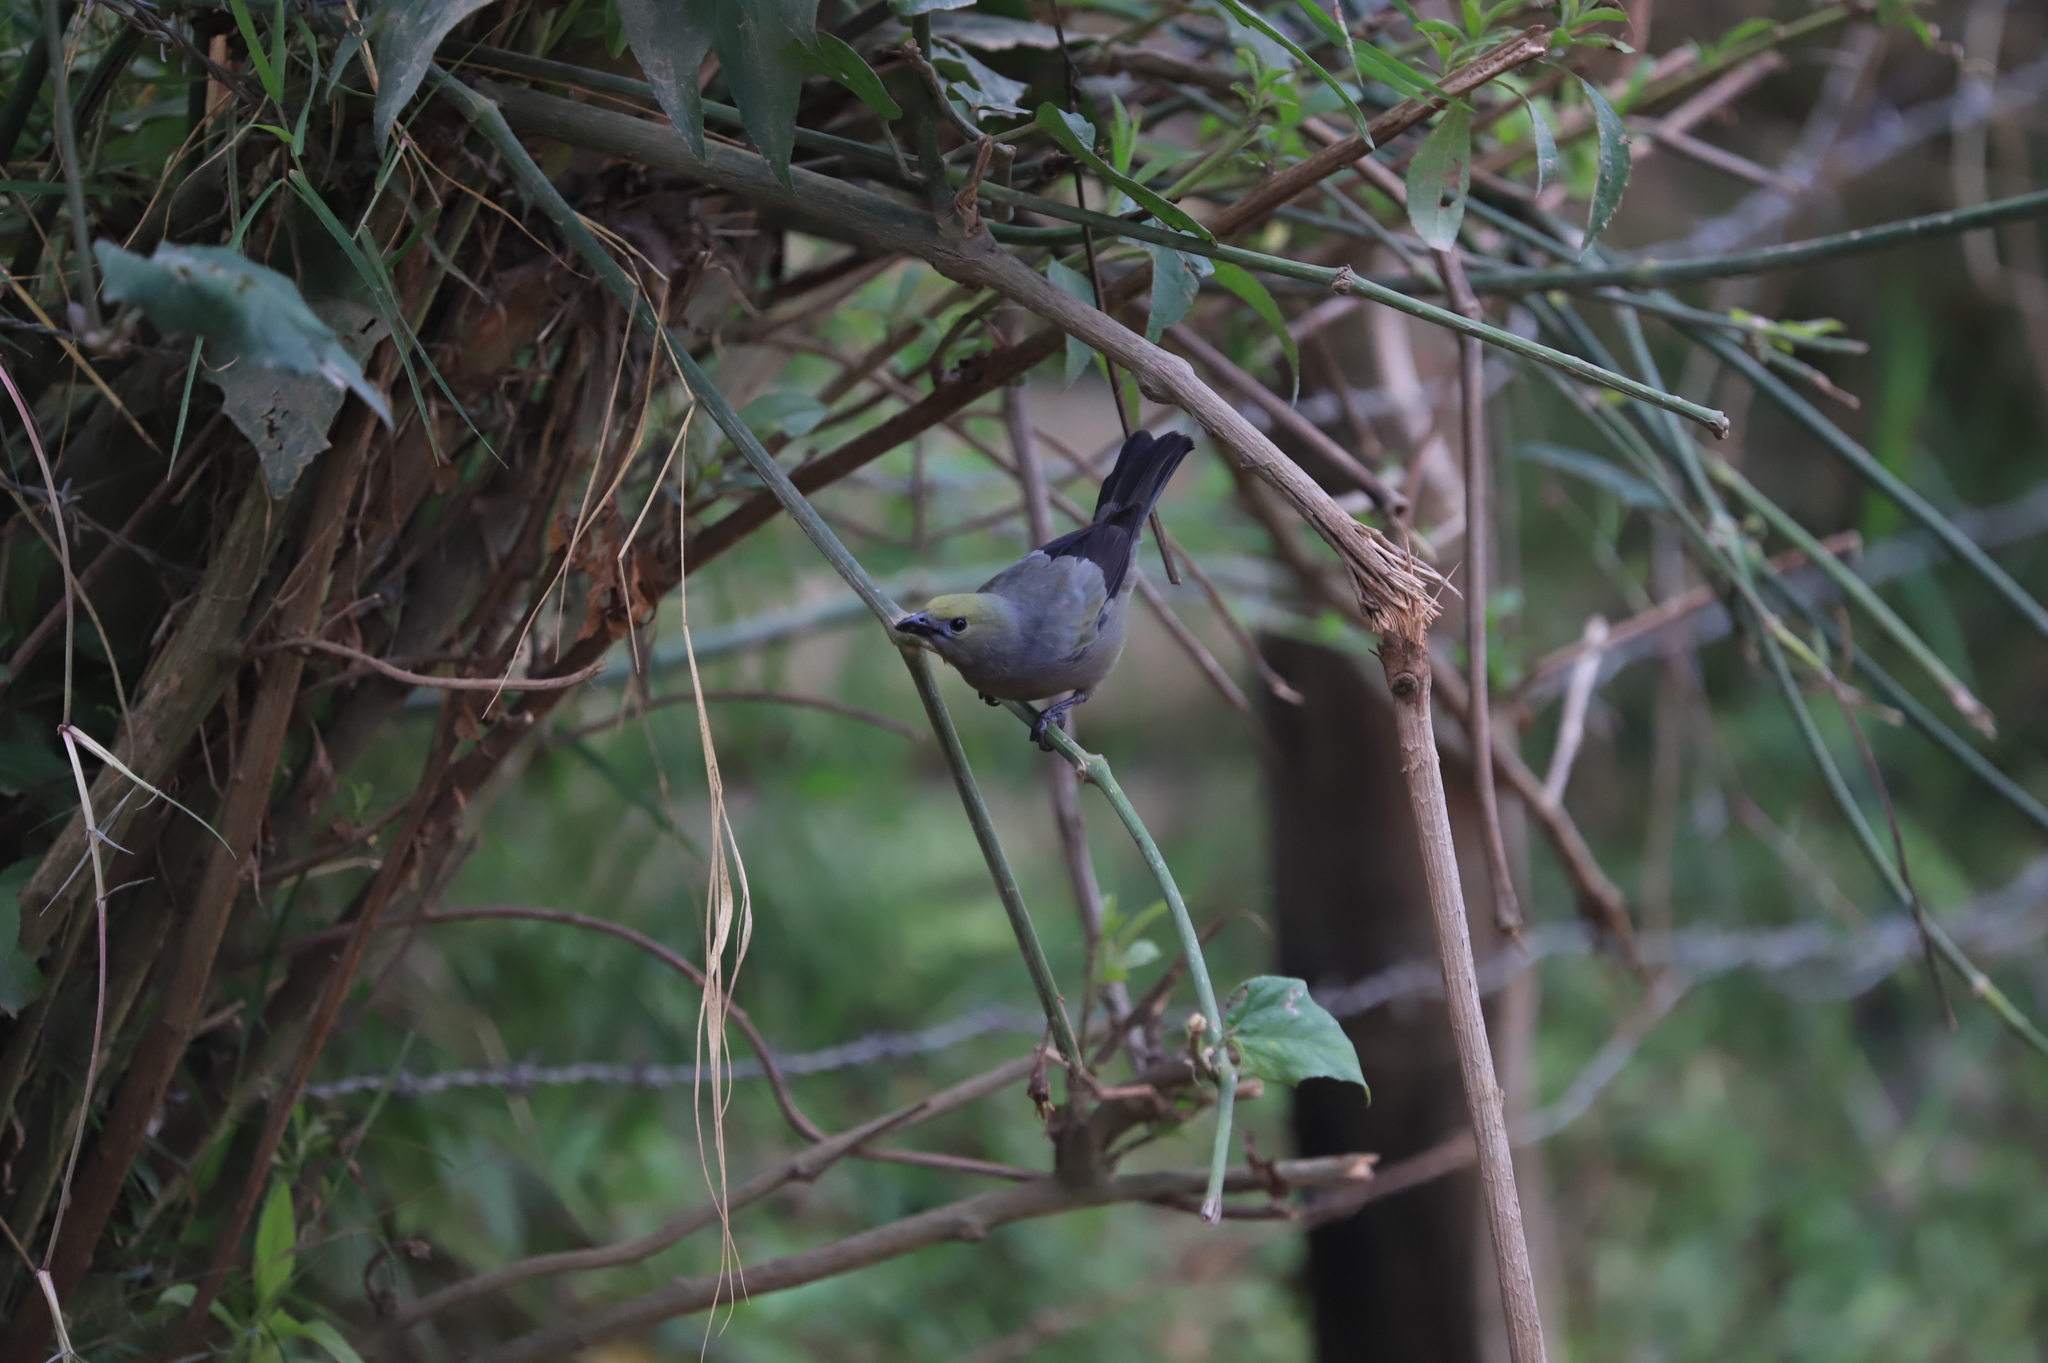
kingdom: Animalia
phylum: Chordata
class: Aves
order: Passeriformes
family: Thraupidae
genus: Thraupis
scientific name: Thraupis palmarum
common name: Palm tanager
